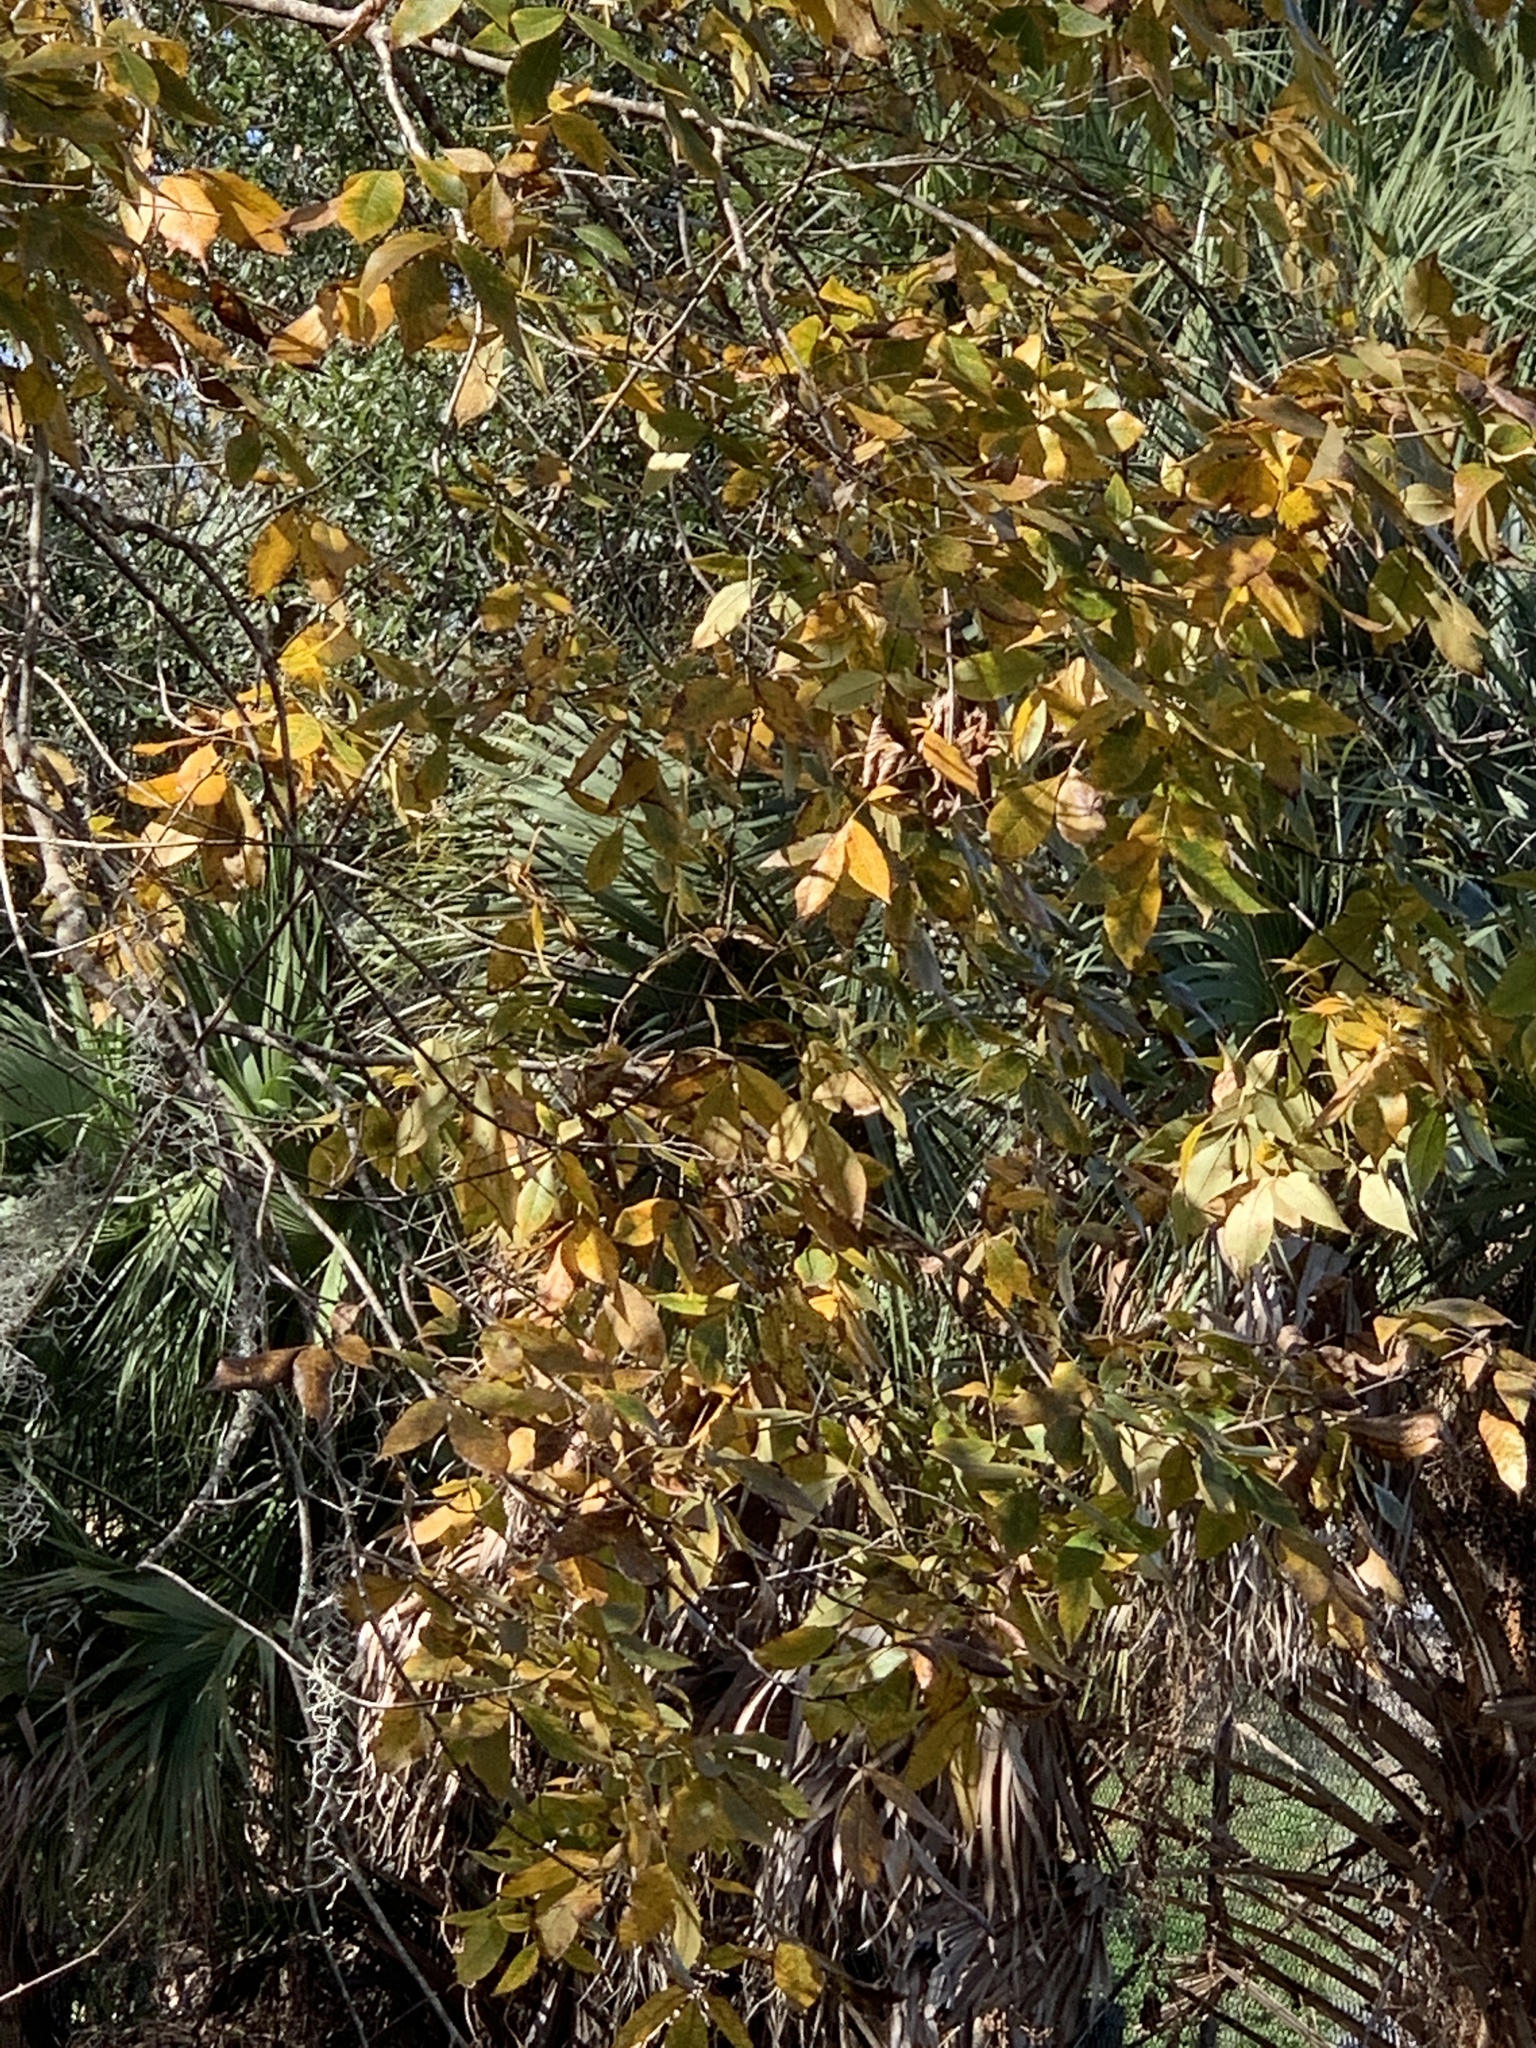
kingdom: Plantae
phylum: Tracheophyta
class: Magnoliopsida
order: Fagales
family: Juglandaceae
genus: Carya
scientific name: Carya glabra
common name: Pignut hickory
